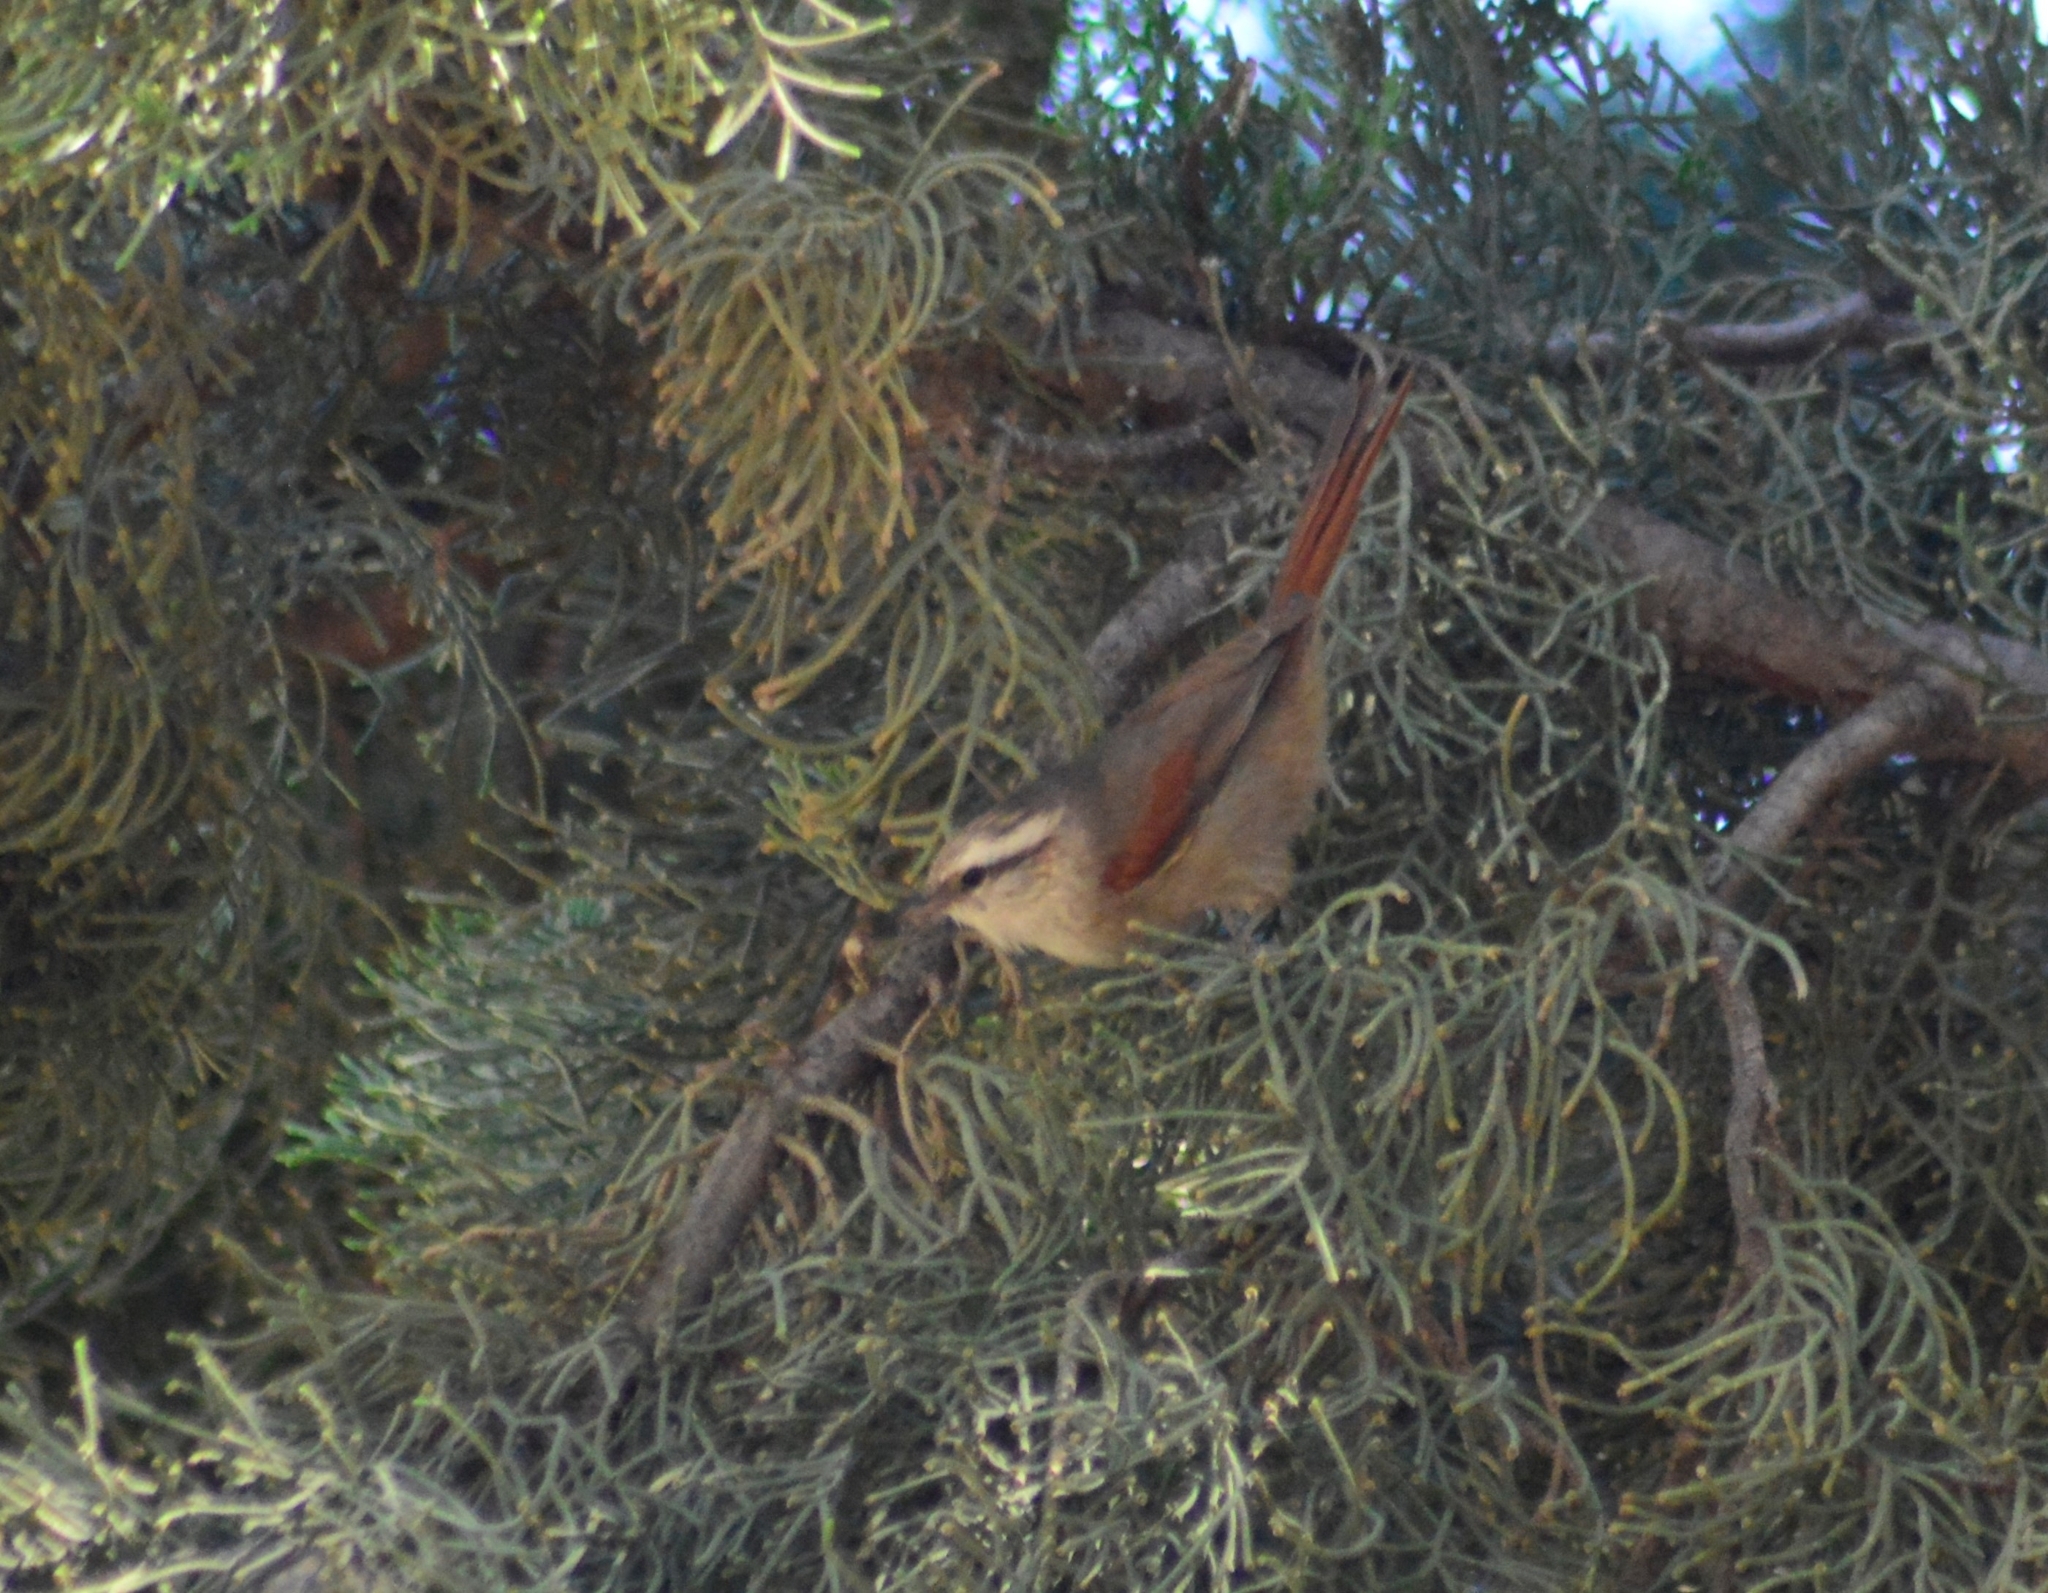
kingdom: Animalia
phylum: Chordata
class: Aves
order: Passeriformes
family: Furnariidae
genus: Cranioleuca
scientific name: Cranioleuca pyrrhophia
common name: Stripe-crowned spinetail
